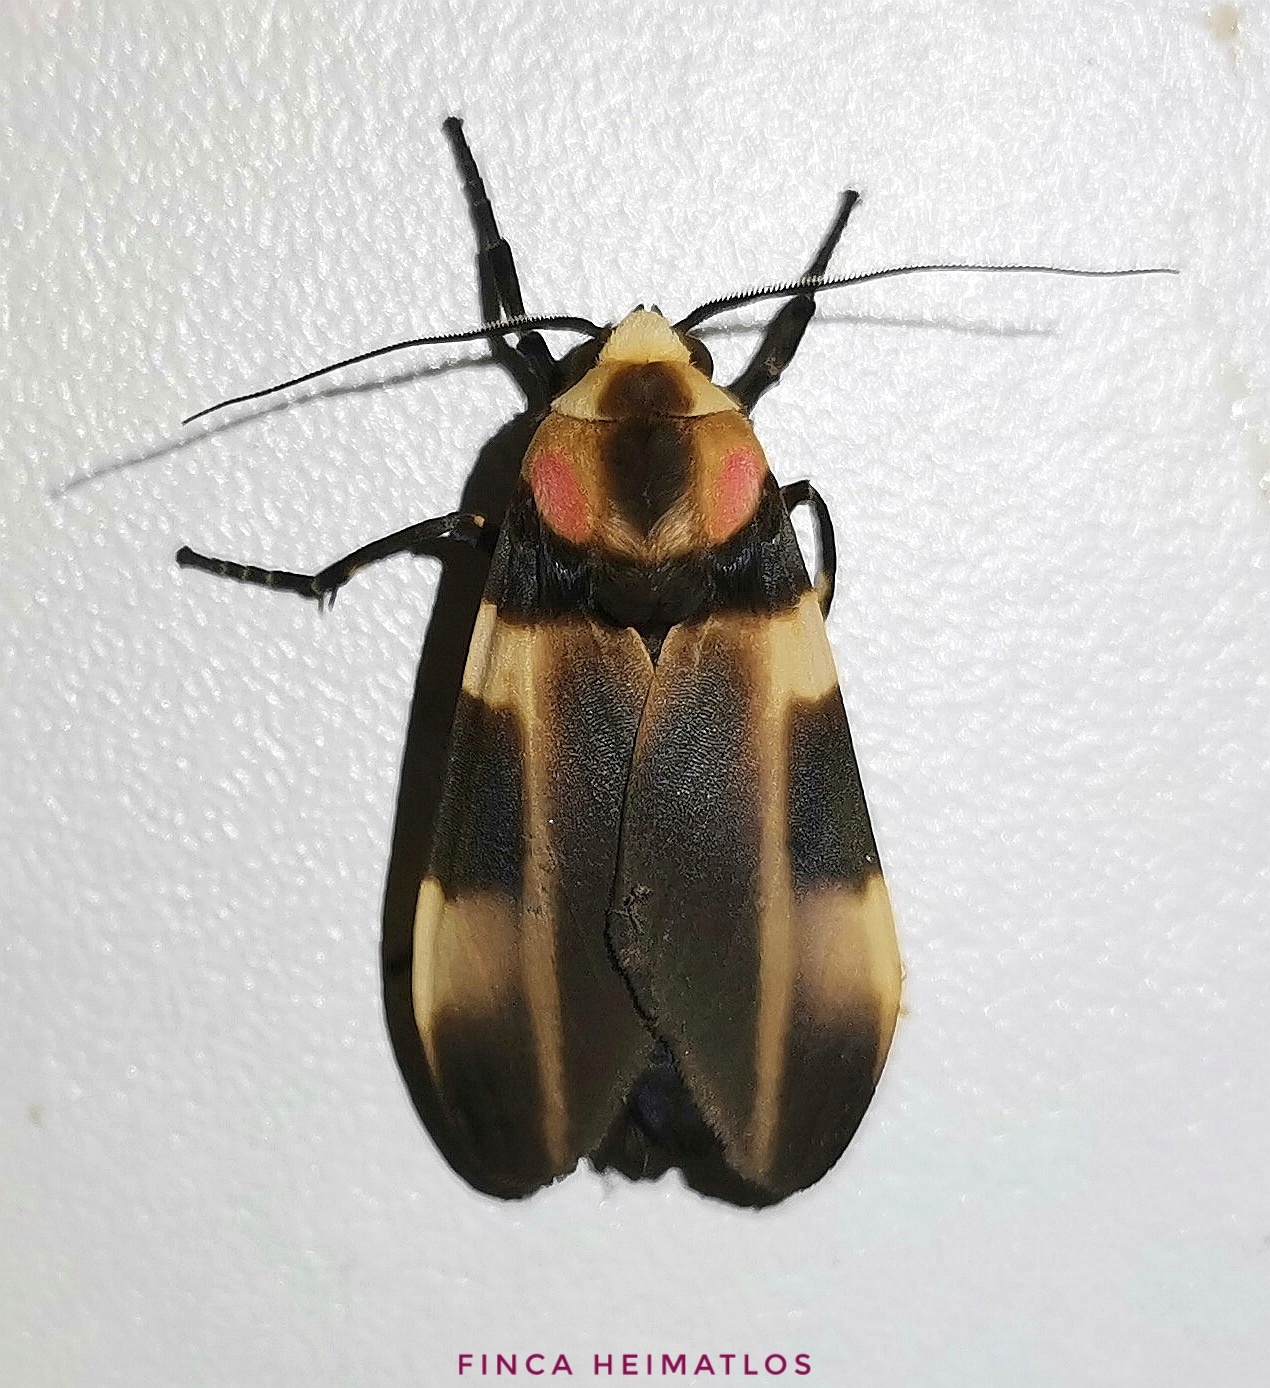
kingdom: Animalia
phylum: Arthropoda
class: Insecta
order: Lepidoptera
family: Erebidae
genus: Cratoplastis
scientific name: Cratoplastis rectiradia
